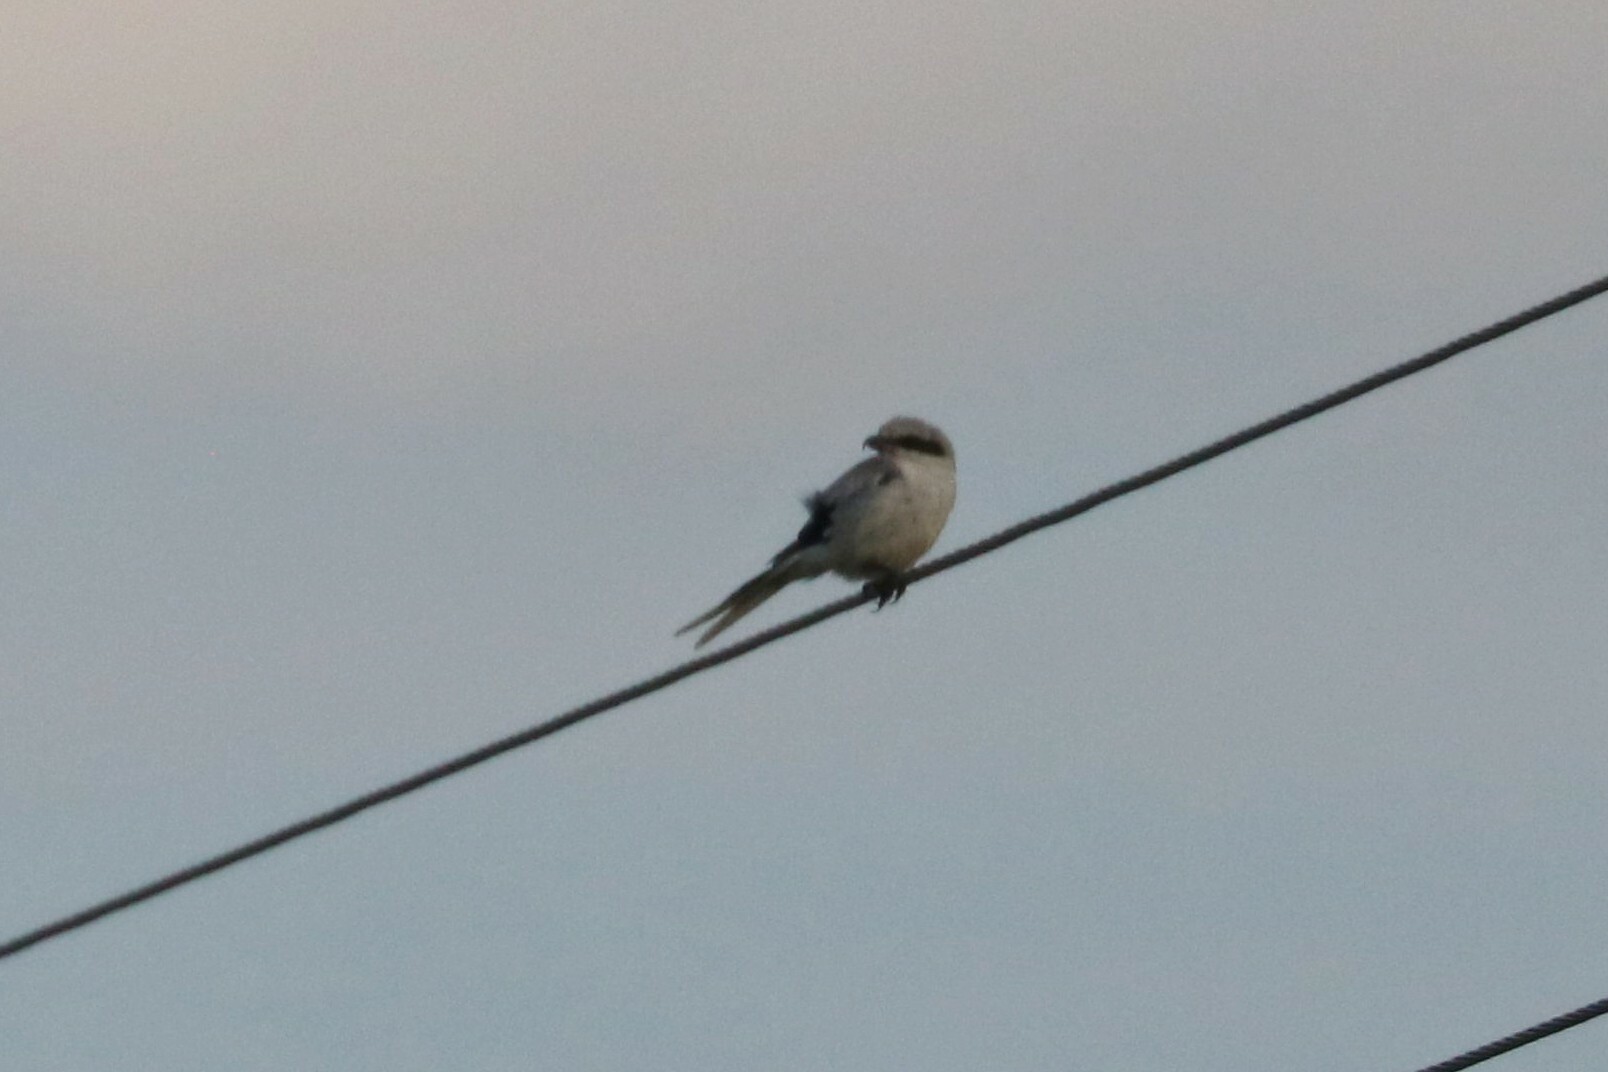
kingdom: Animalia
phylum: Chordata
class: Aves
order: Passeriformes
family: Laniidae
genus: Lanius
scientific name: Lanius excubitor
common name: Great grey shrike
